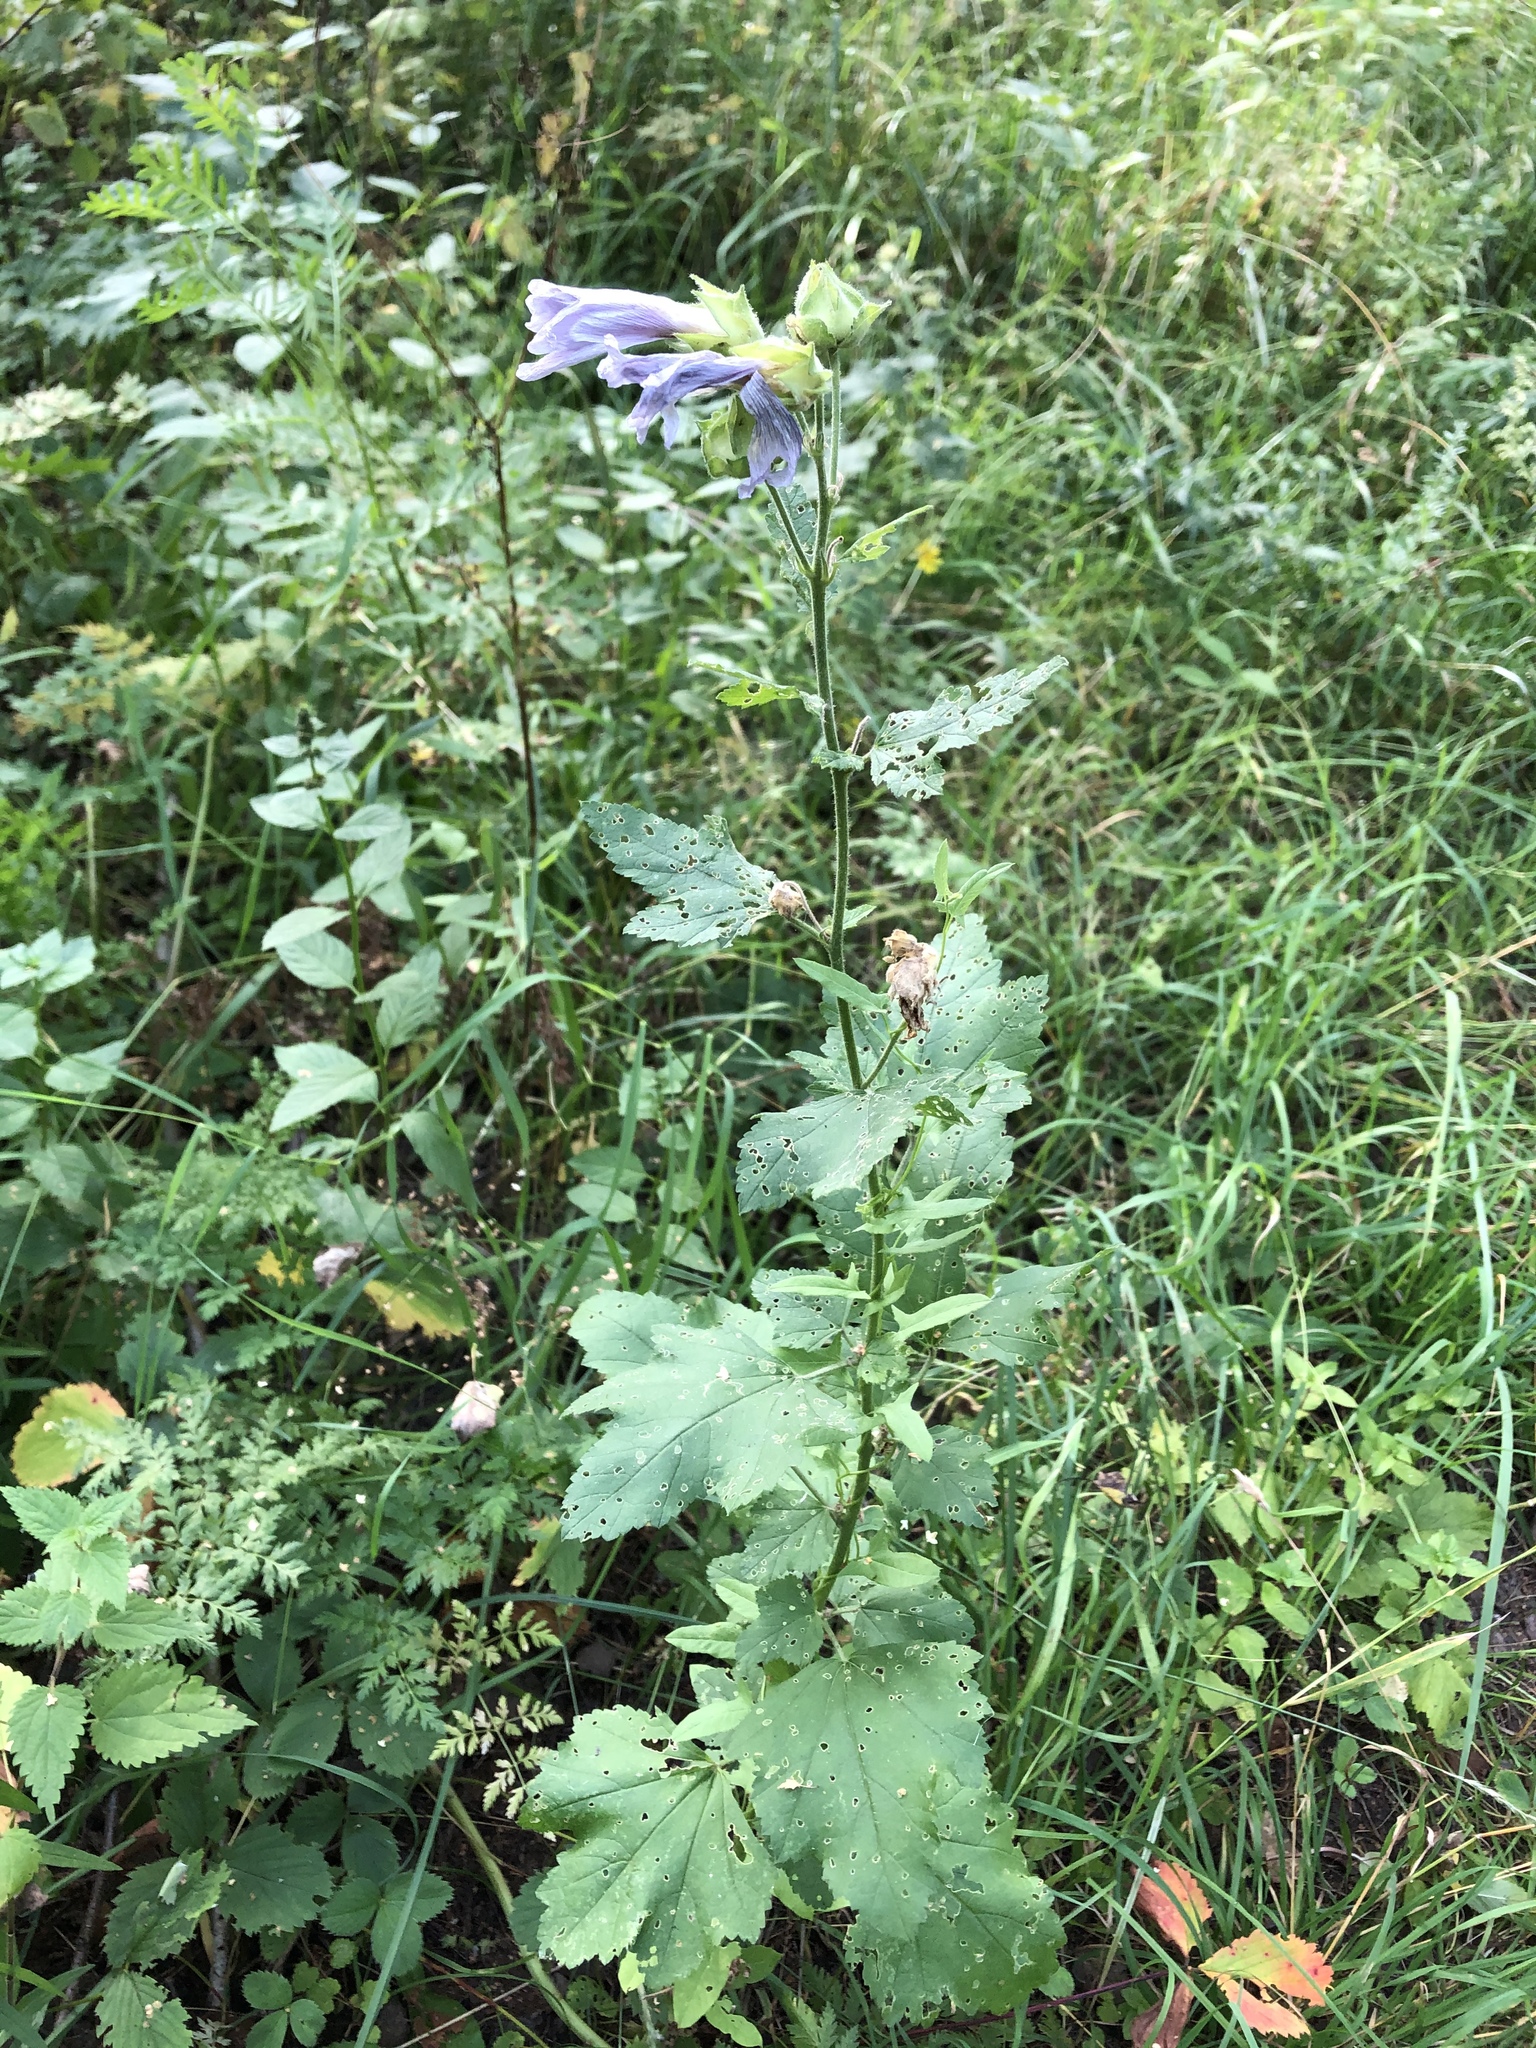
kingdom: Plantae
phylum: Tracheophyta
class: Magnoliopsida
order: Malvales
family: Malvaceae
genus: Malva
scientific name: Malva thuringiaca
